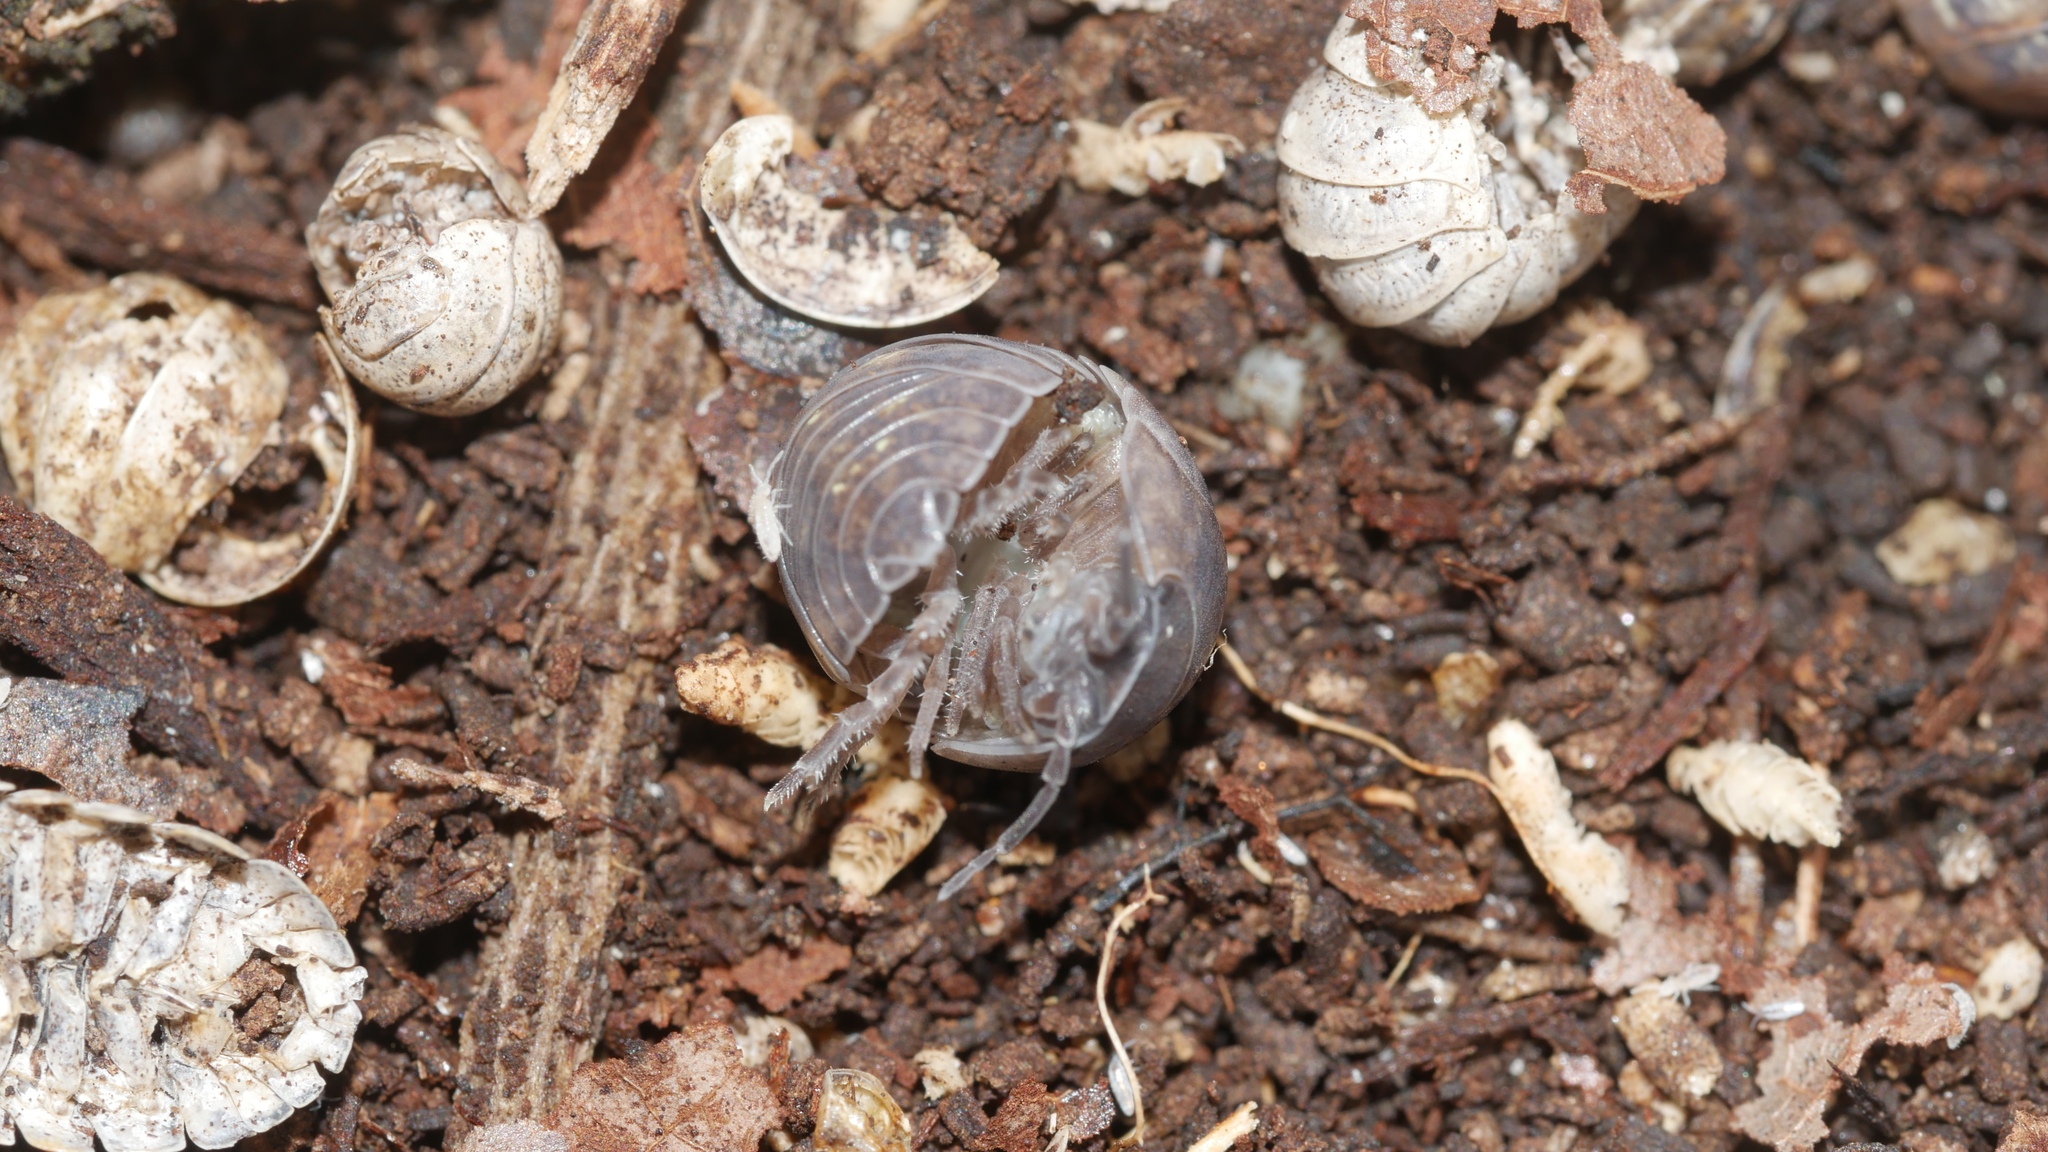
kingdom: Animalia
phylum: Arthropoda
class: Malacostraca
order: Isopoda
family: Armadillidiidae
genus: Armadillidium
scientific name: Armadillidium vulgare
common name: Common pill woodlouse
